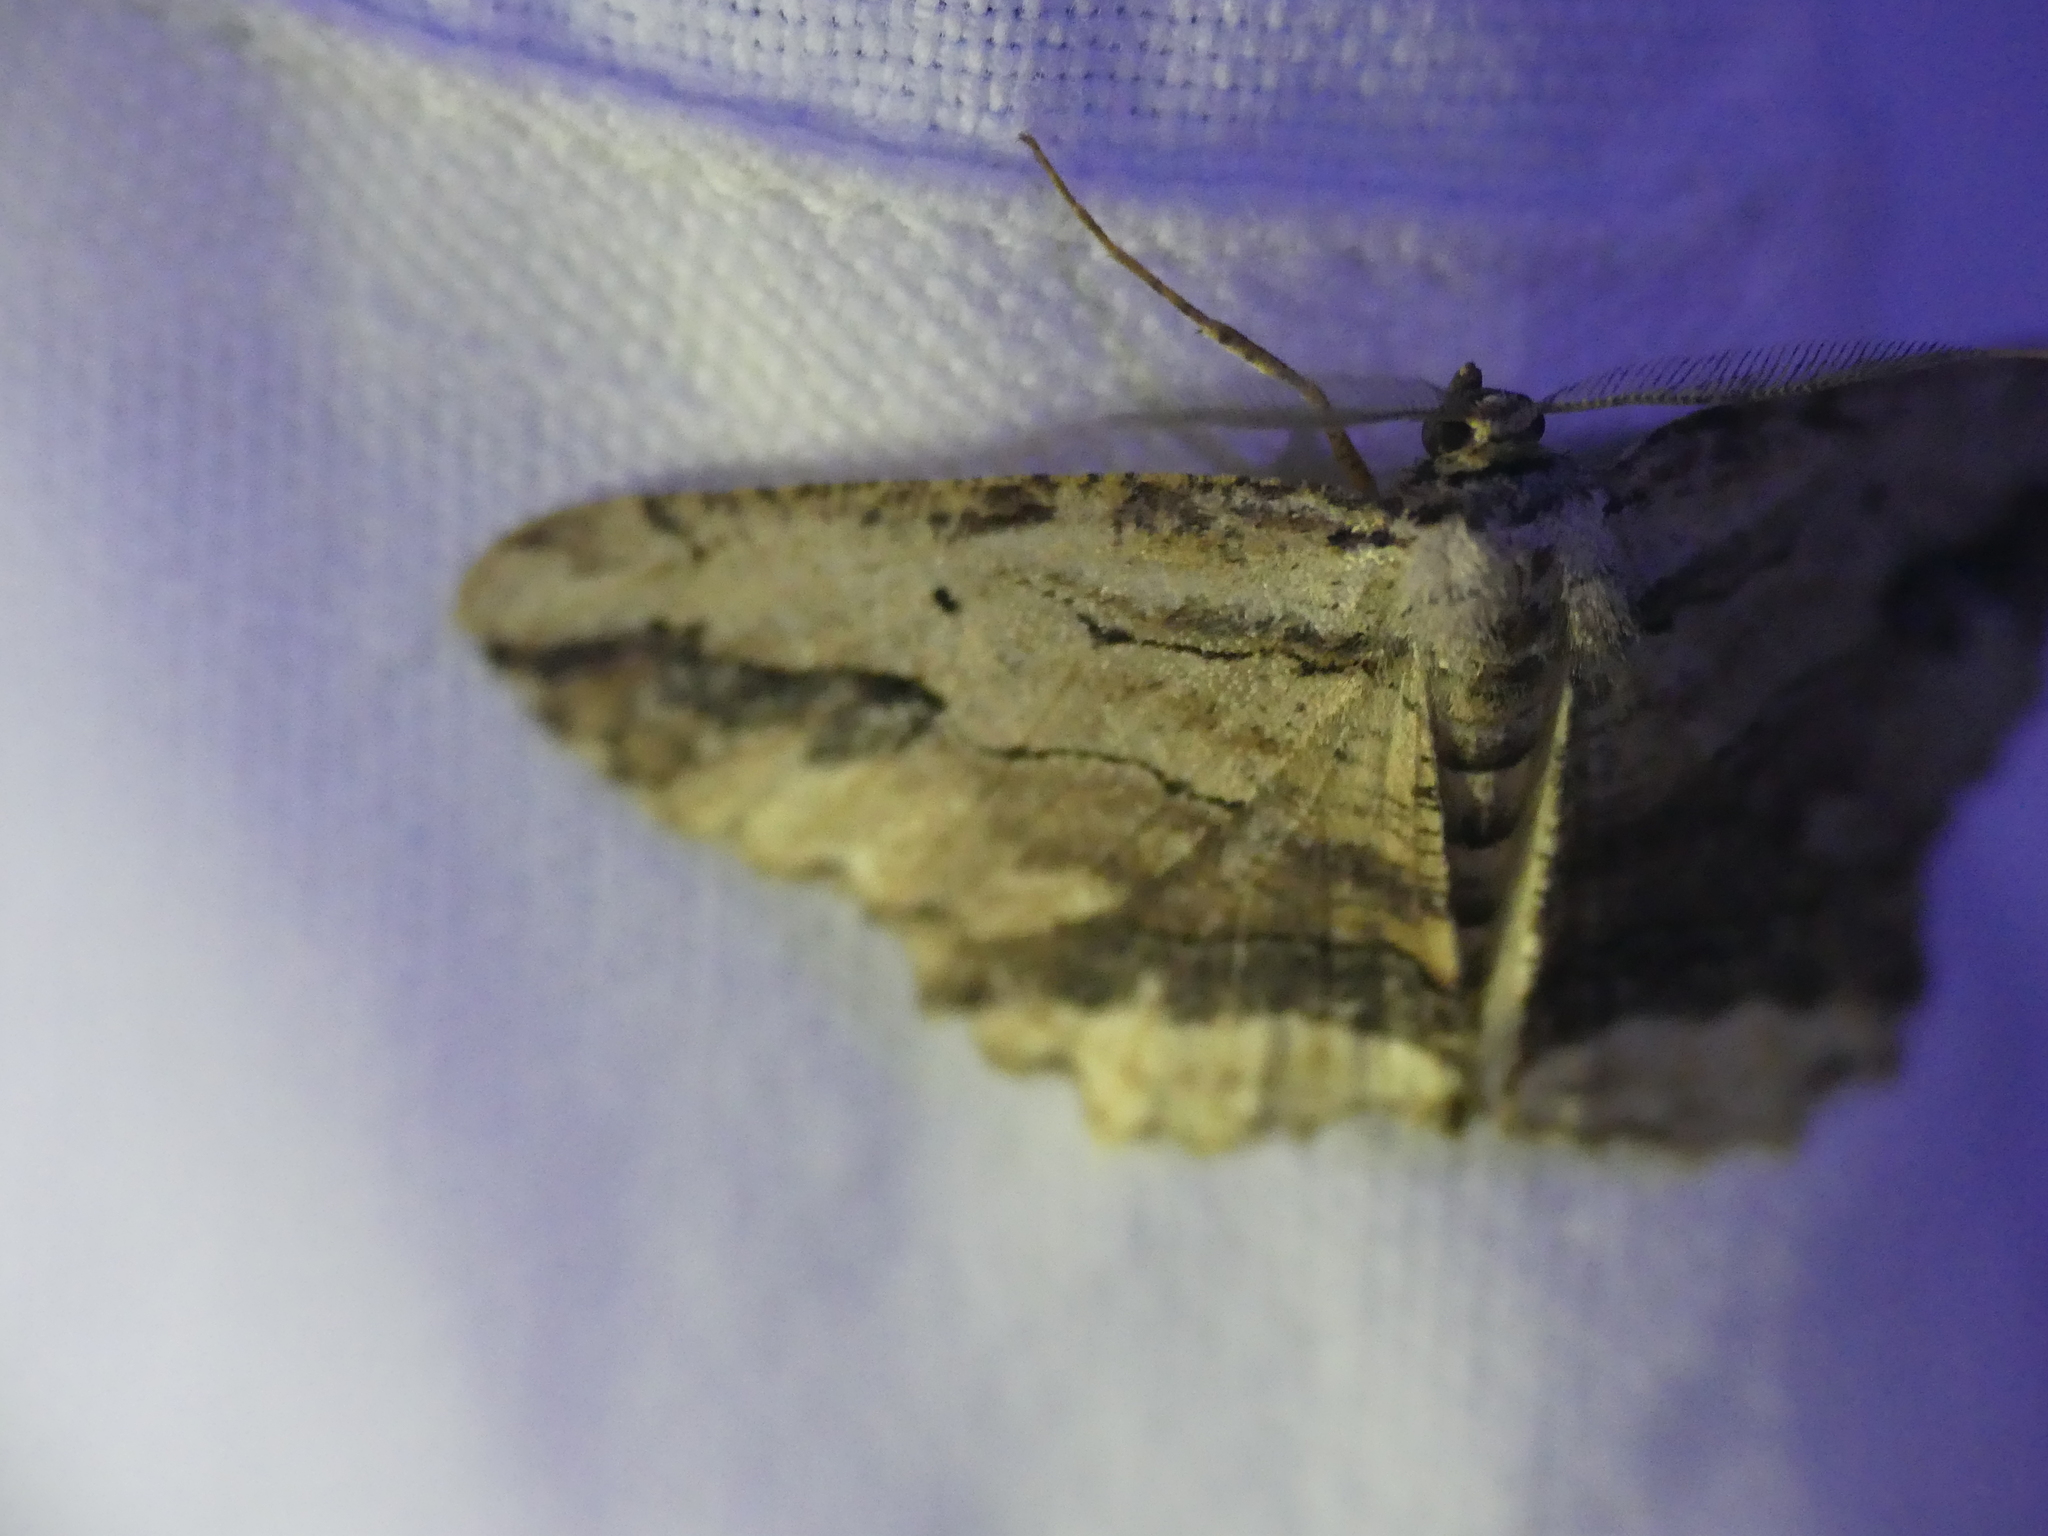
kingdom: Animalia
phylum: Arthropoda
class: Insecta
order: Lepidoptera
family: Geometridae
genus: Menophra
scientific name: Menophra abruptaria
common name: Waved umber
